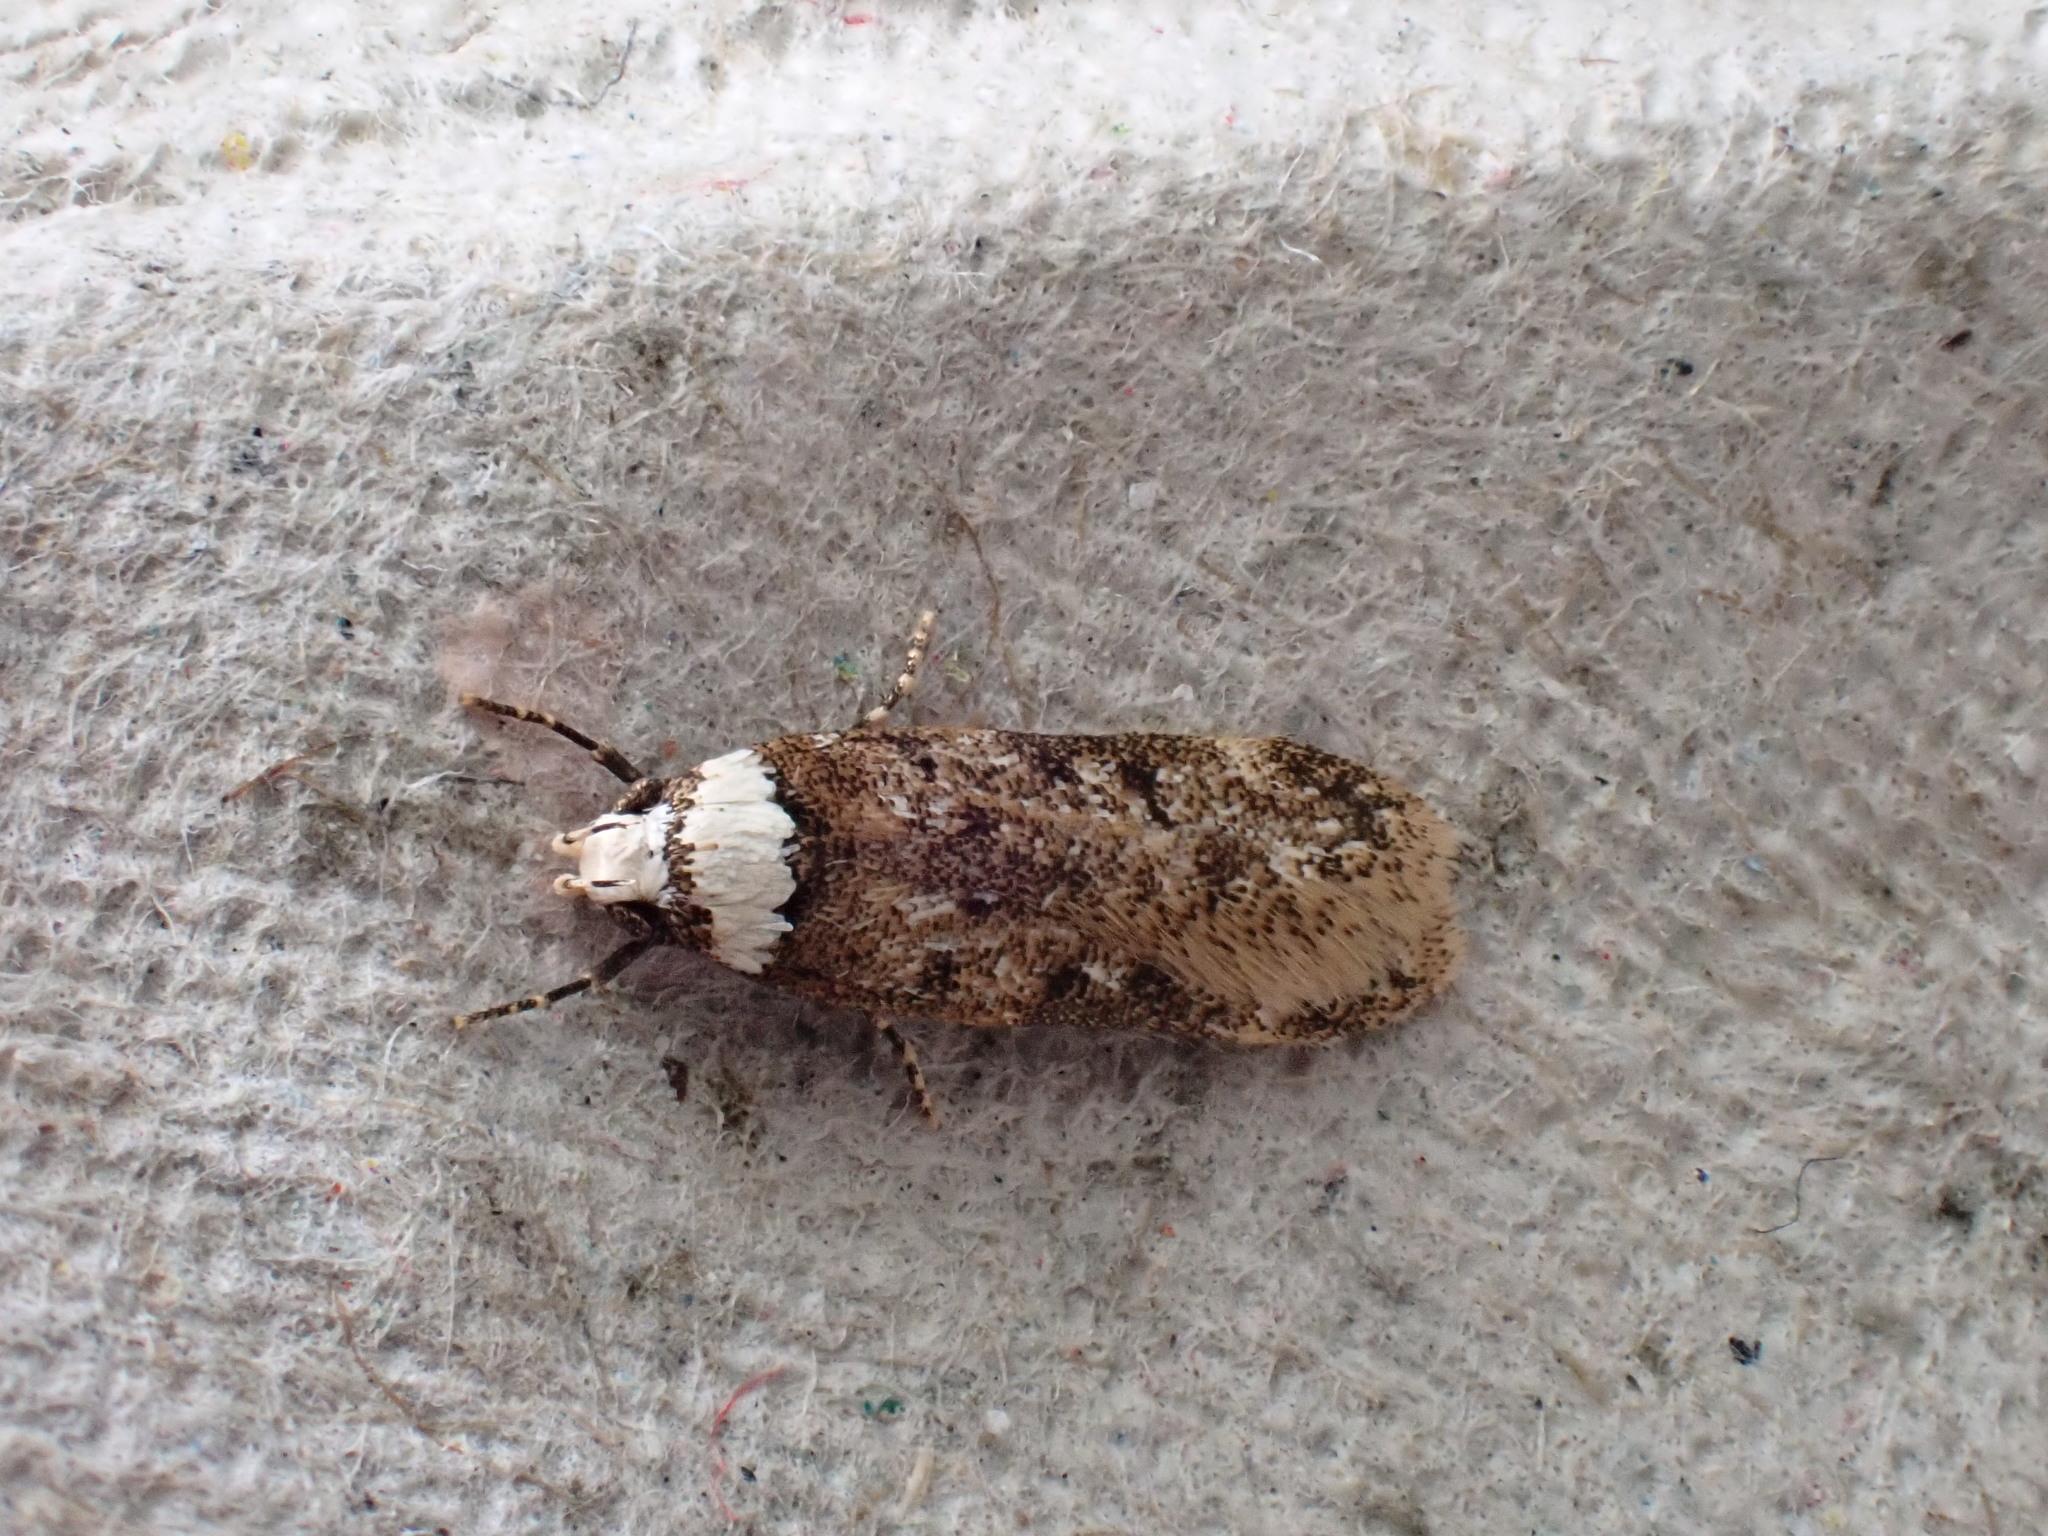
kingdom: Animalia
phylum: Arthropoda
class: Insecta
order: Lepidoptera
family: Oecophoridae
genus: Endrosis
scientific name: Endrosis sarcitrella
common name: White-shouldered house moth
